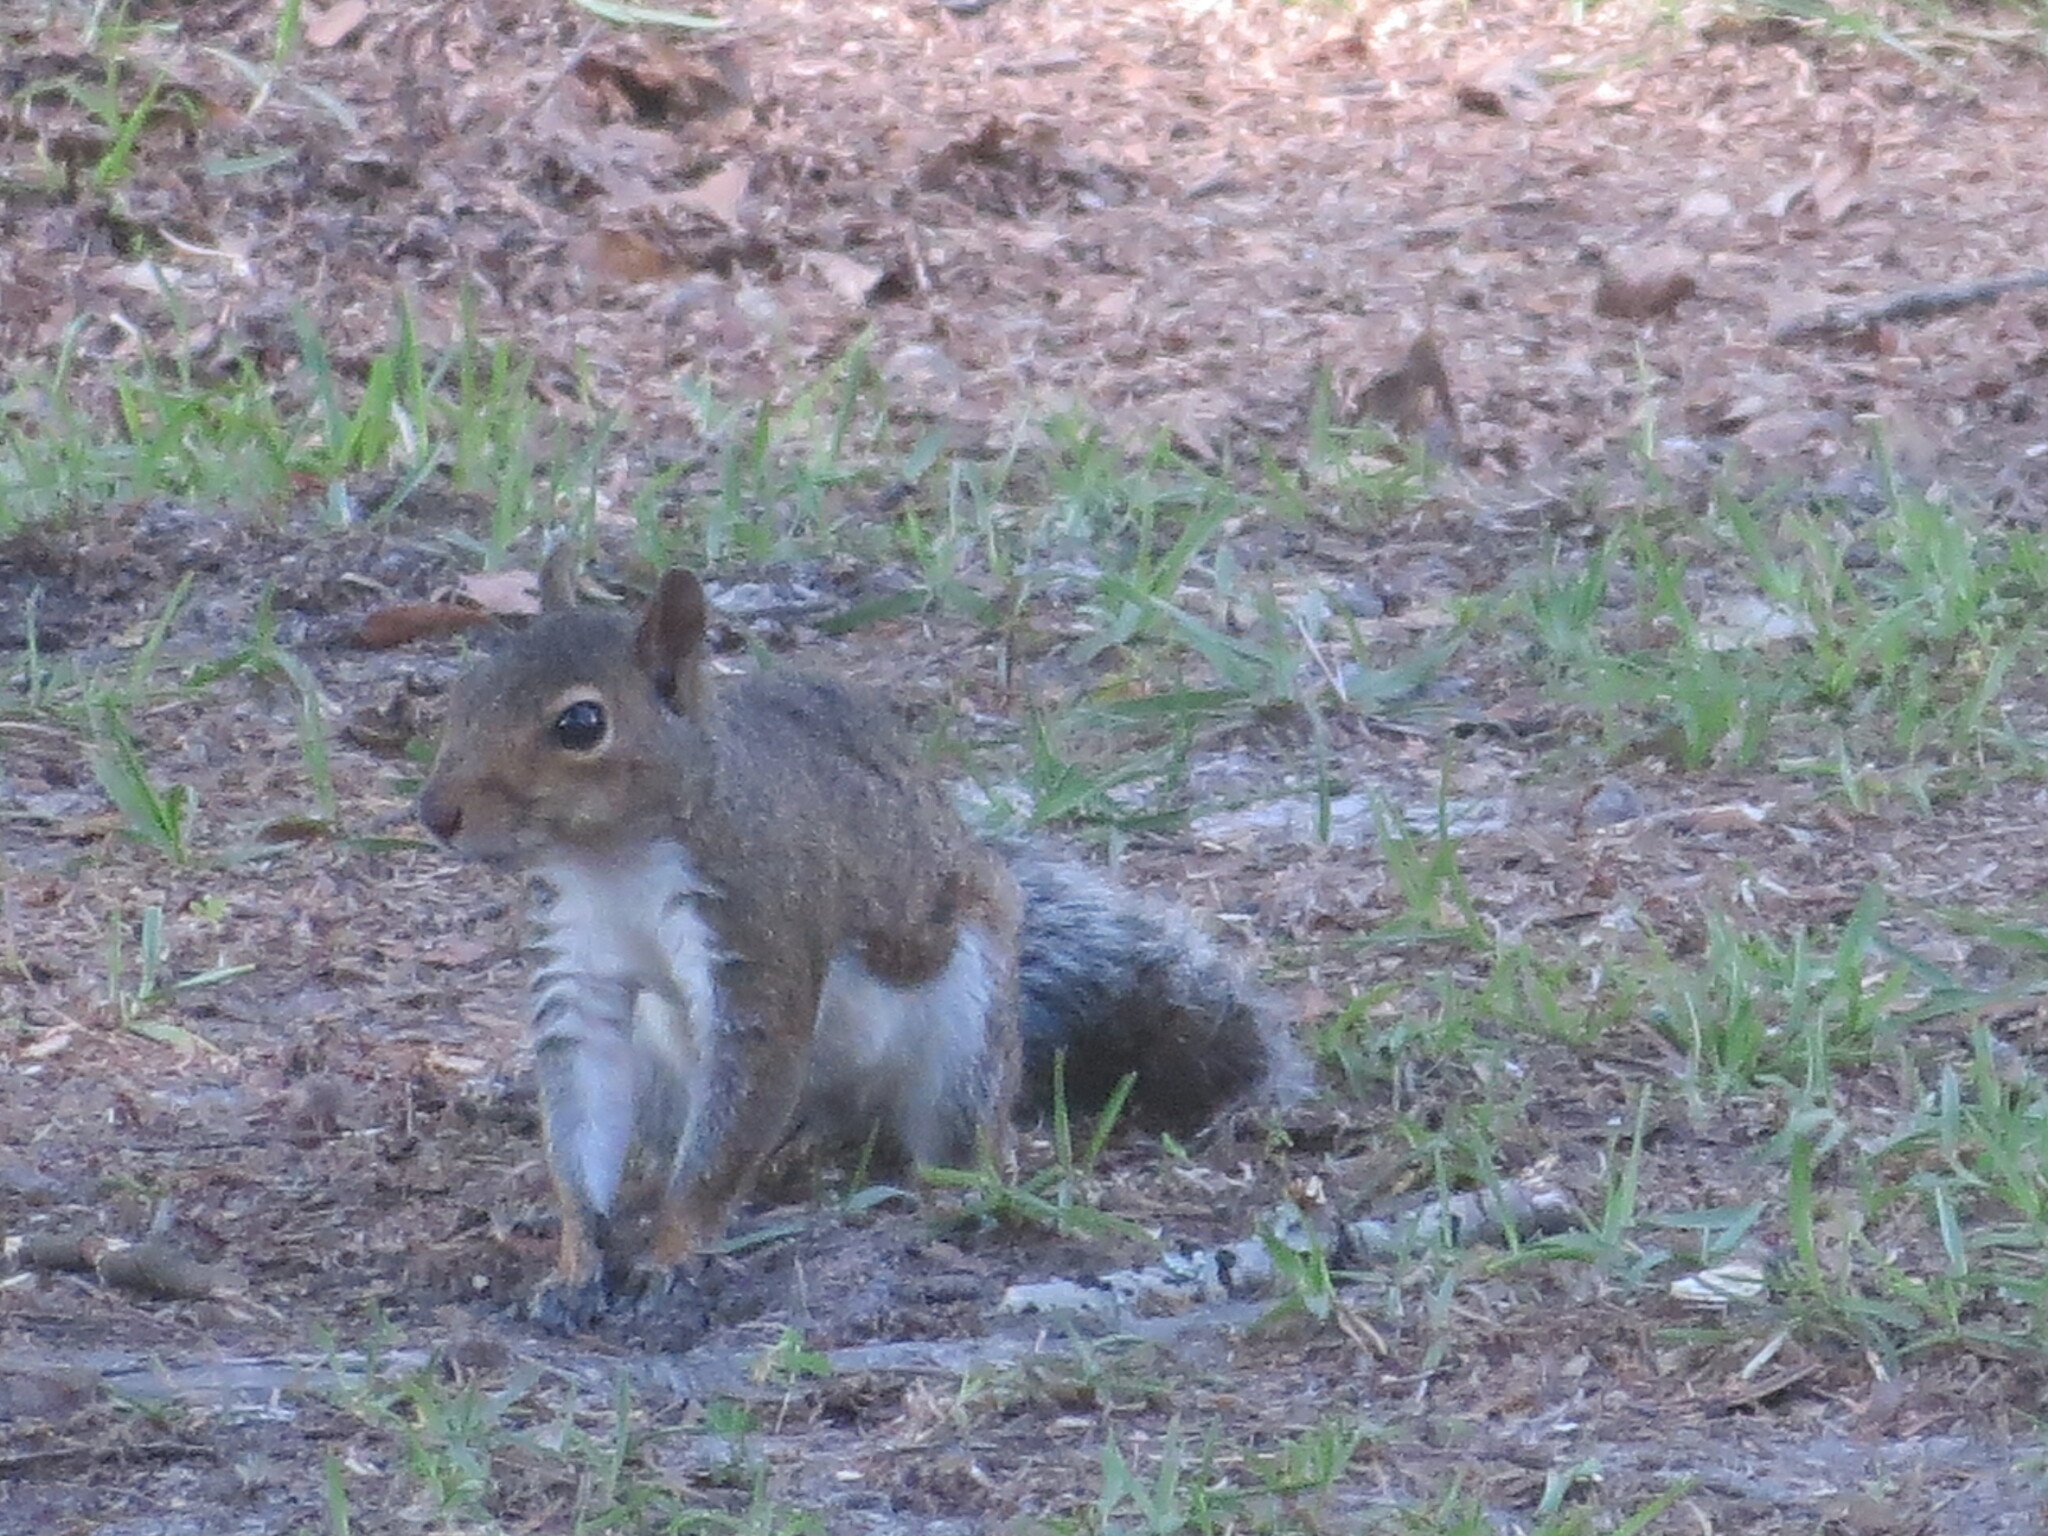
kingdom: Animalia
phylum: Chordata
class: Mammalia
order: Rodentia
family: Sciuridae
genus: Sciurus
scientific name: Sciurus carolinensis
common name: Eastern gray squirrel
